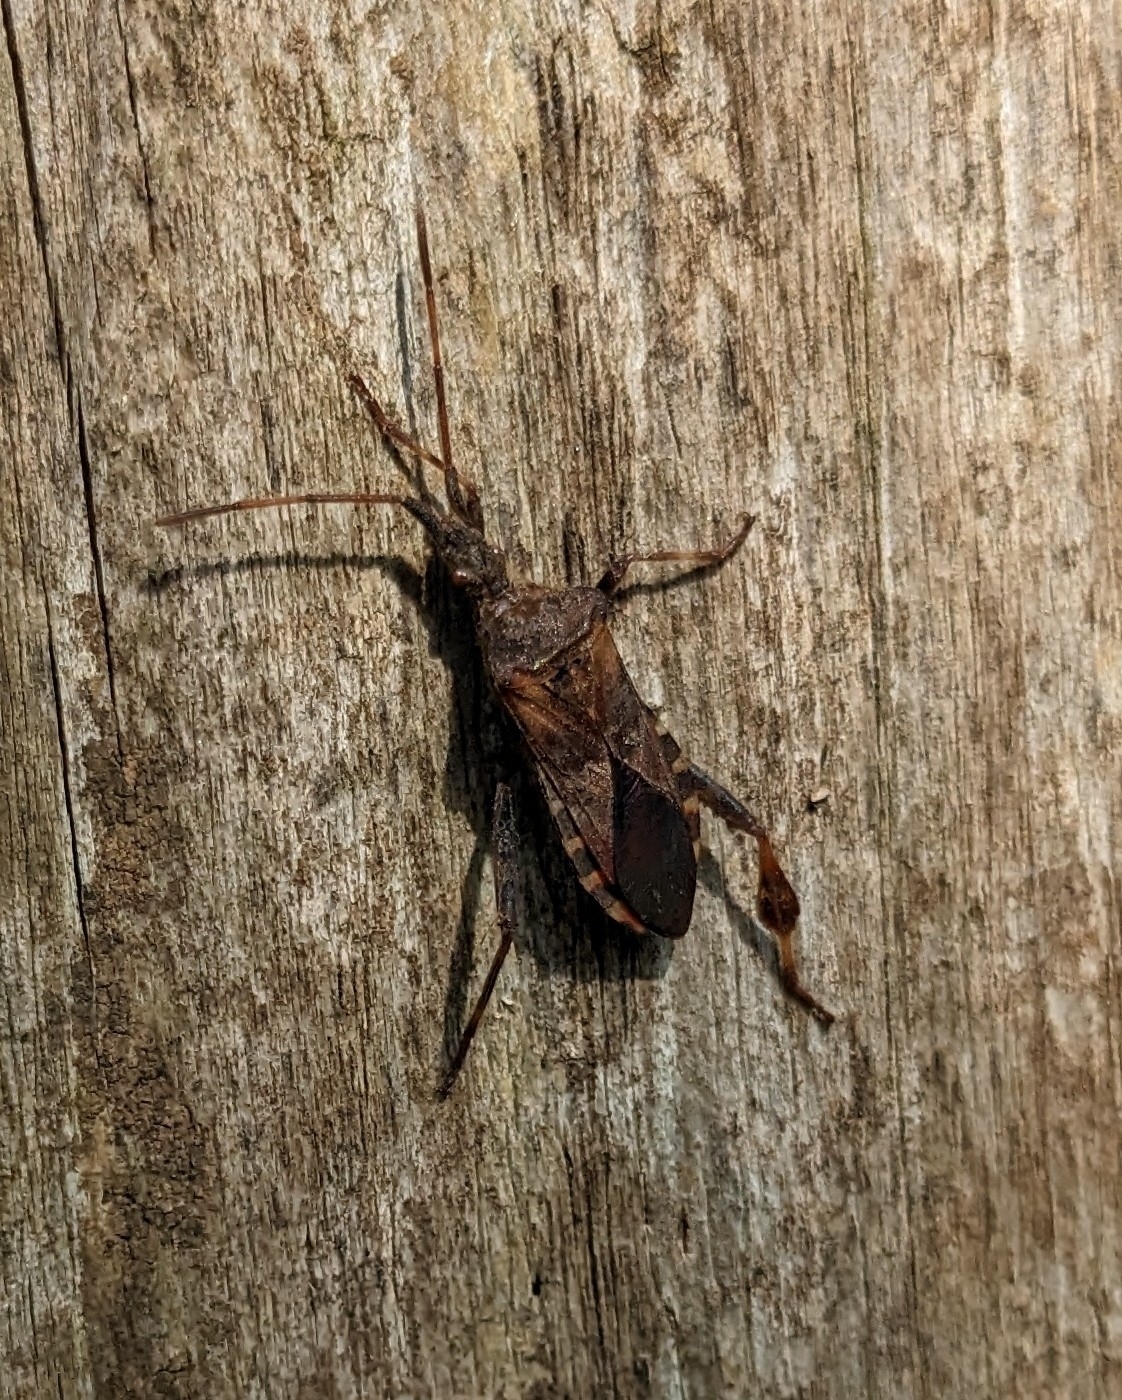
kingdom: Animalia
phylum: Arthropoda
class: Insecta
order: Hemiptera
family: Coreidae
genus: Leptoglossus
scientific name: Leptoglossus occidentalis
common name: Western conifer-seed bug
